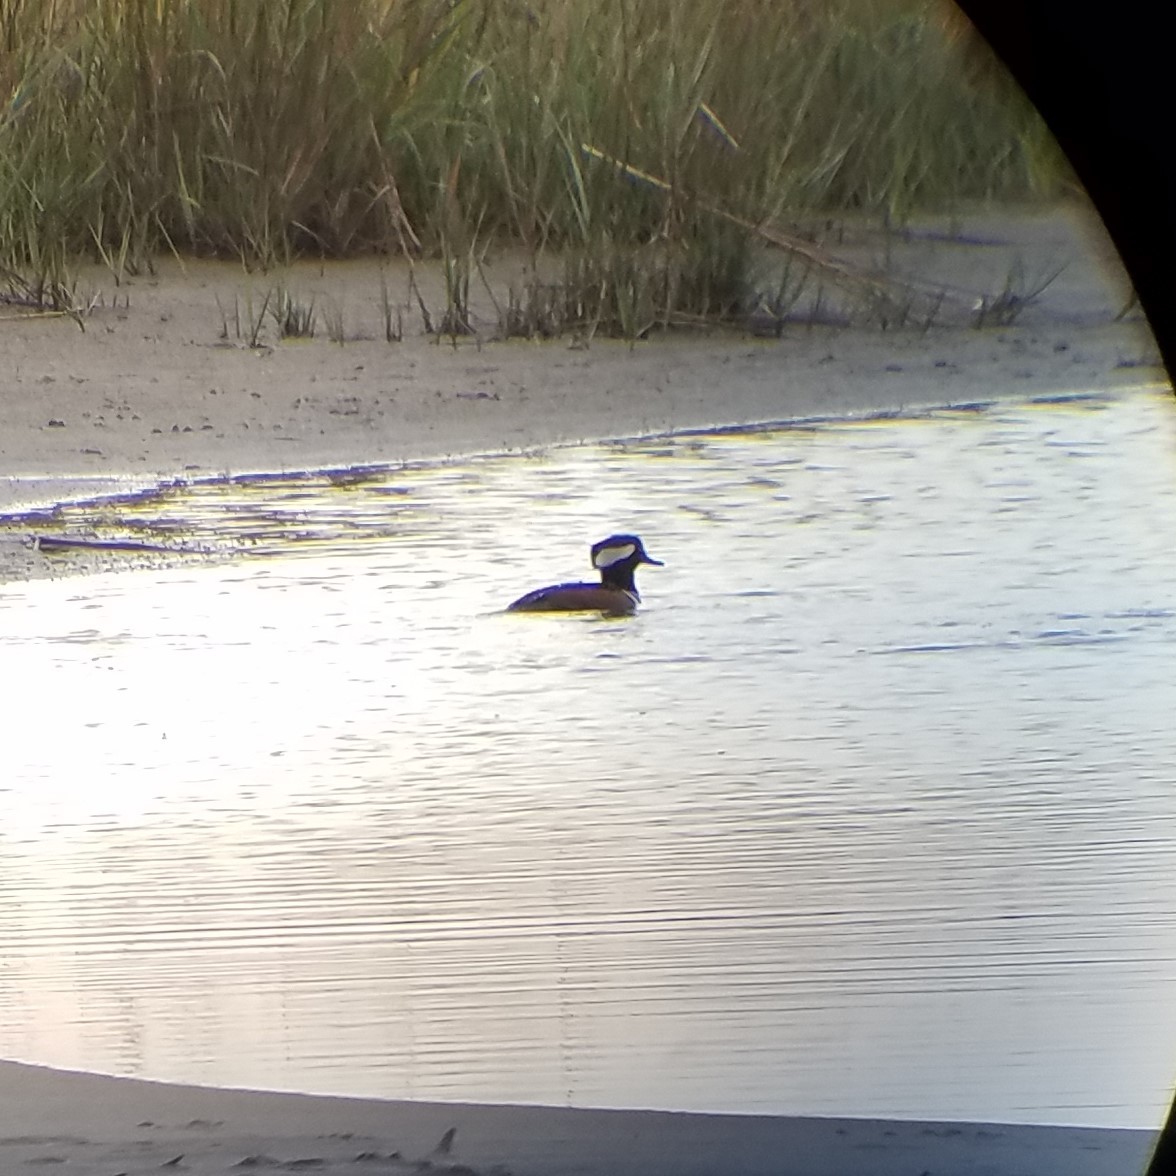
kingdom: Animalia
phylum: Chordata
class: Aves
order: Anseriformes
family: Anatidae
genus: Lophodytes
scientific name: Lophodytes cucullatus
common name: Hooded merganser
